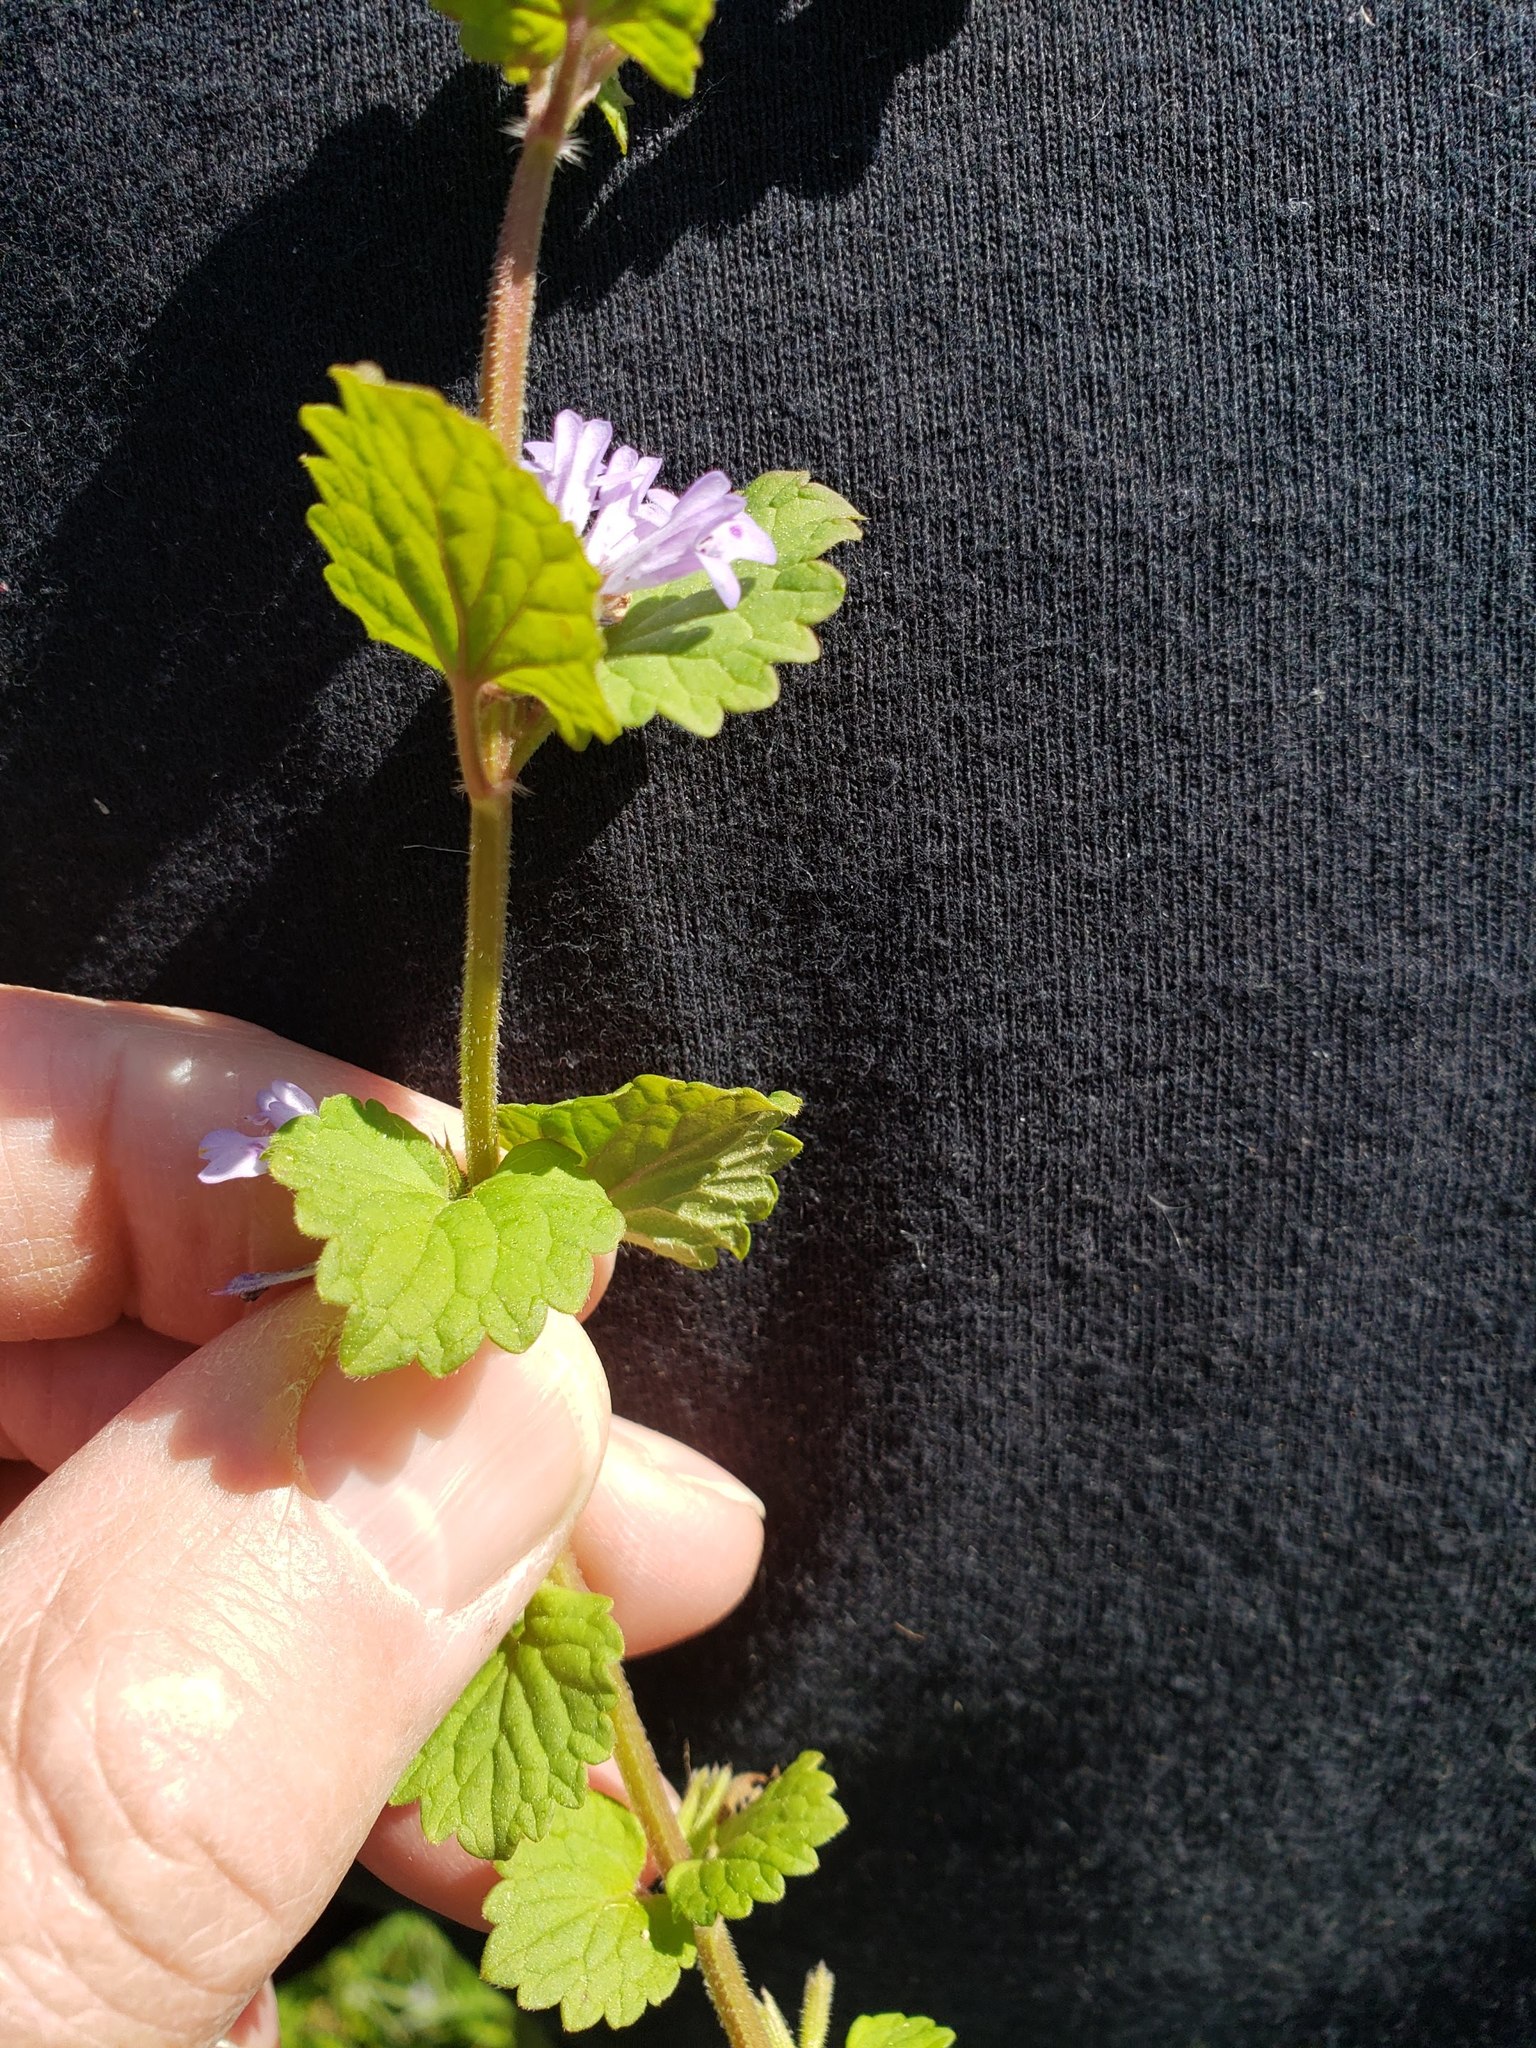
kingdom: Plantae
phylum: Tracheophyta
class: Magnoliopsida
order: Lamiales
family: Lamiaceae
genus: Glechoma
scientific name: Glechoma hederacea
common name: Ground ivy
